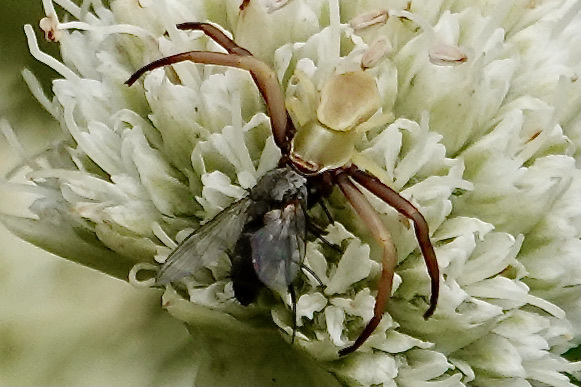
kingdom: Animalia
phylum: Arthropoda
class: Arachnida
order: Araneae
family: Thomisidae
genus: Misumenoides
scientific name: Misumenoides formosipes
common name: White-banded crab spider
